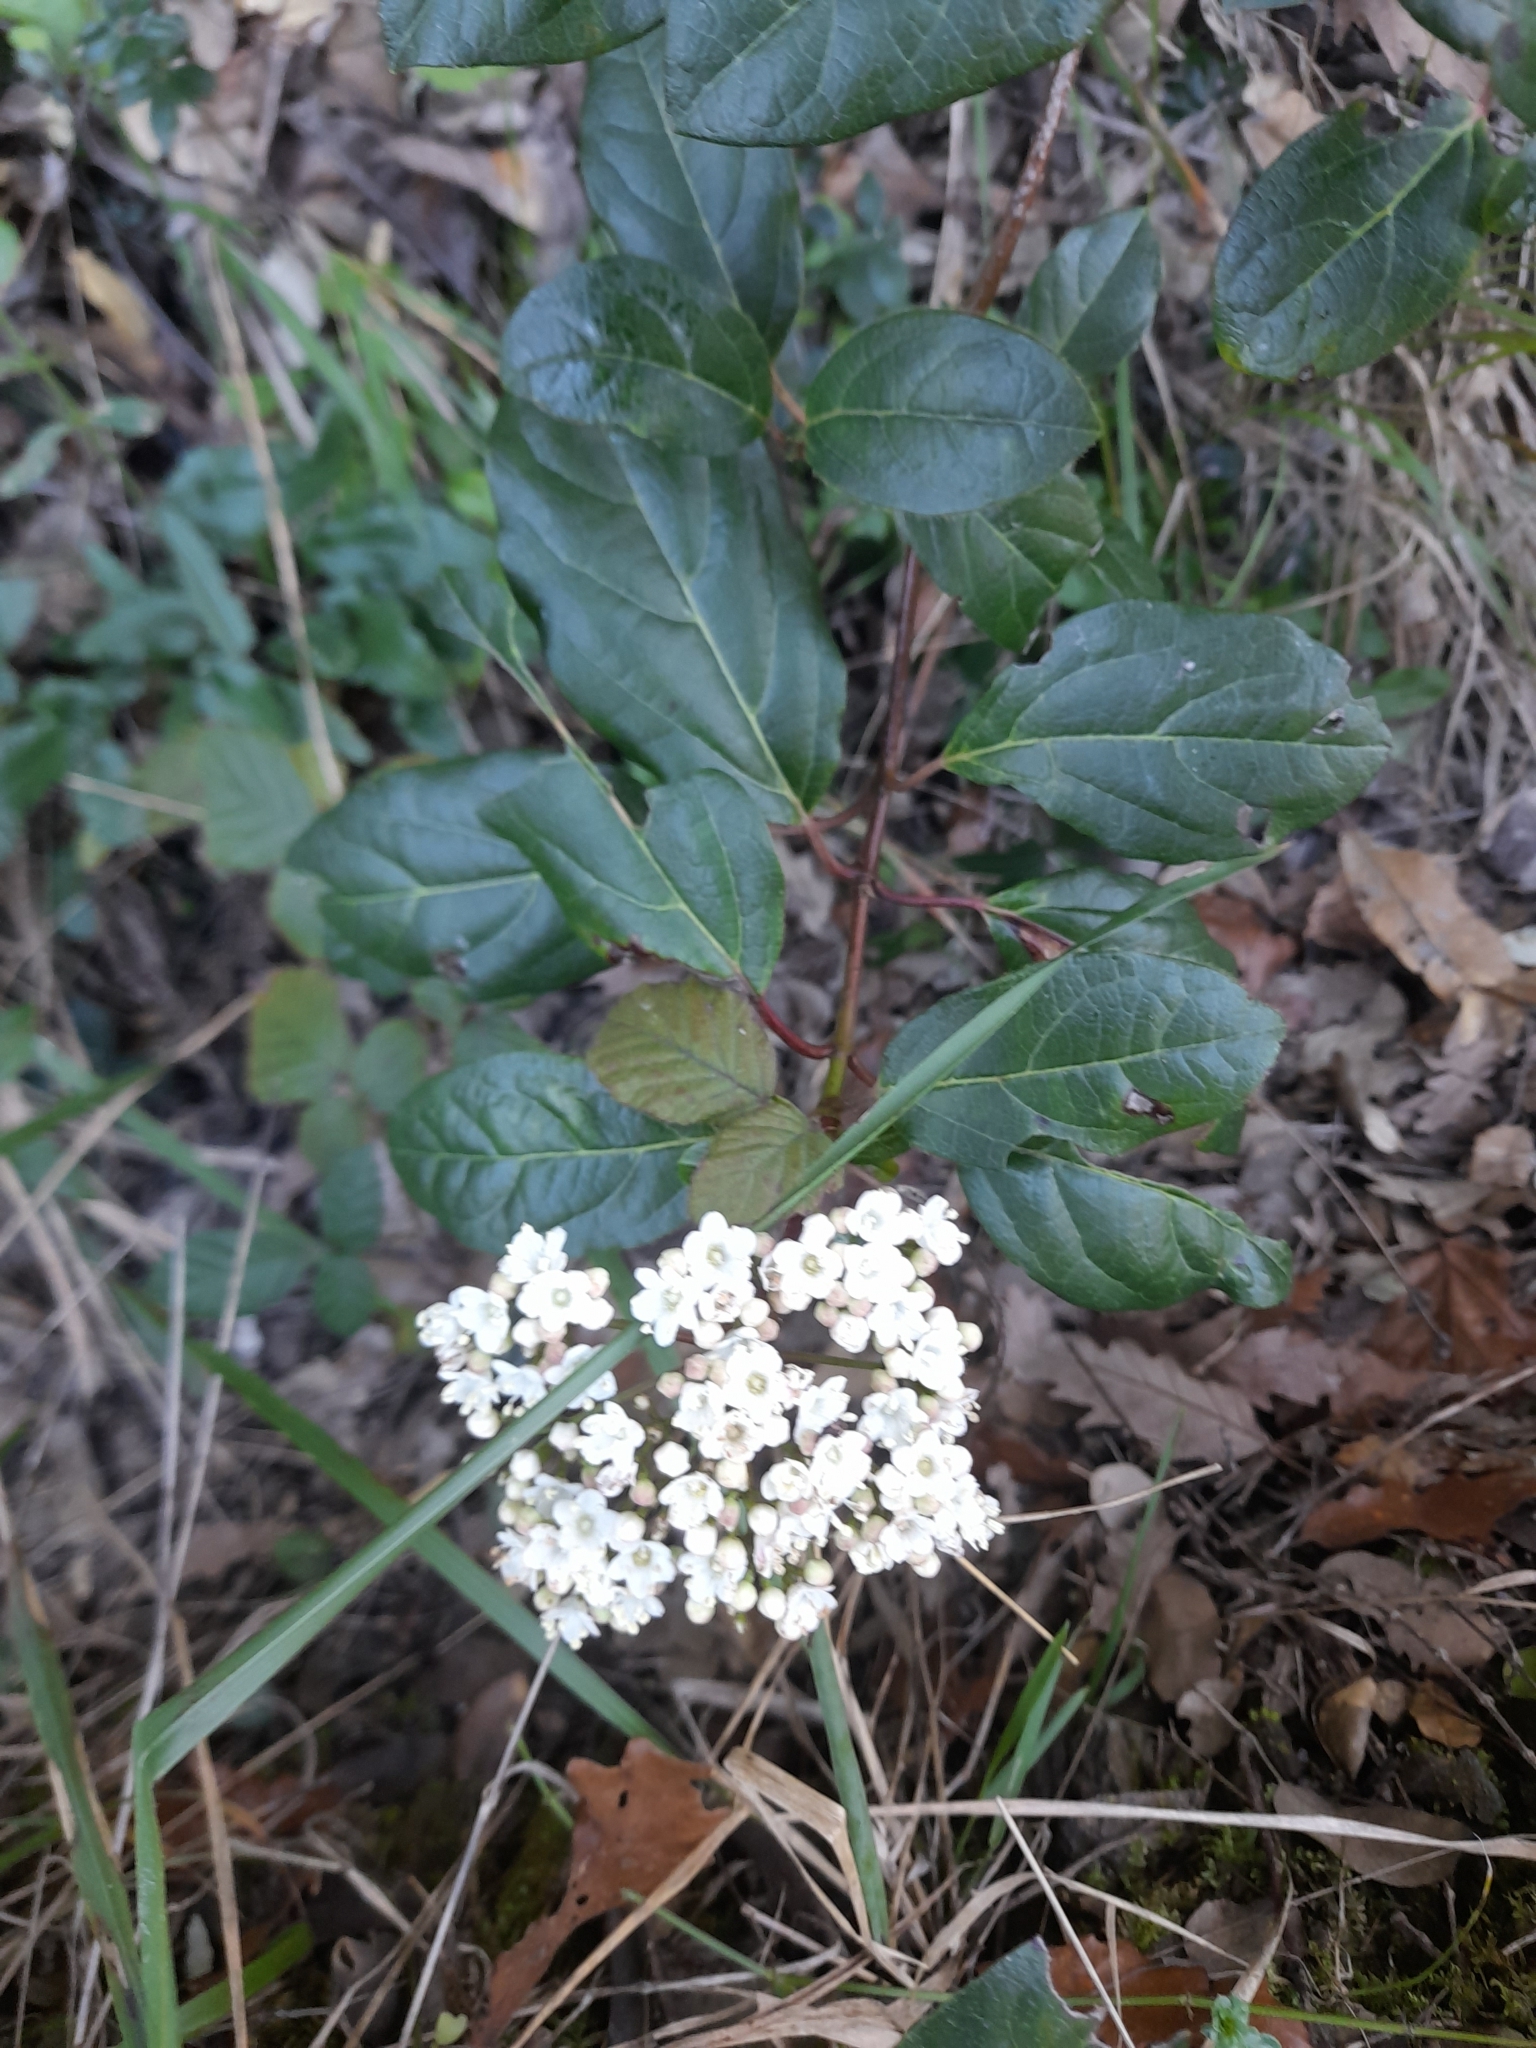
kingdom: Plantae
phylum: Tracheophyta
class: Magnoliopsida
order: Dipsacales
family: Viburnaceae
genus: Viburnum
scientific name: Viburnum tinus
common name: Laurustinus
